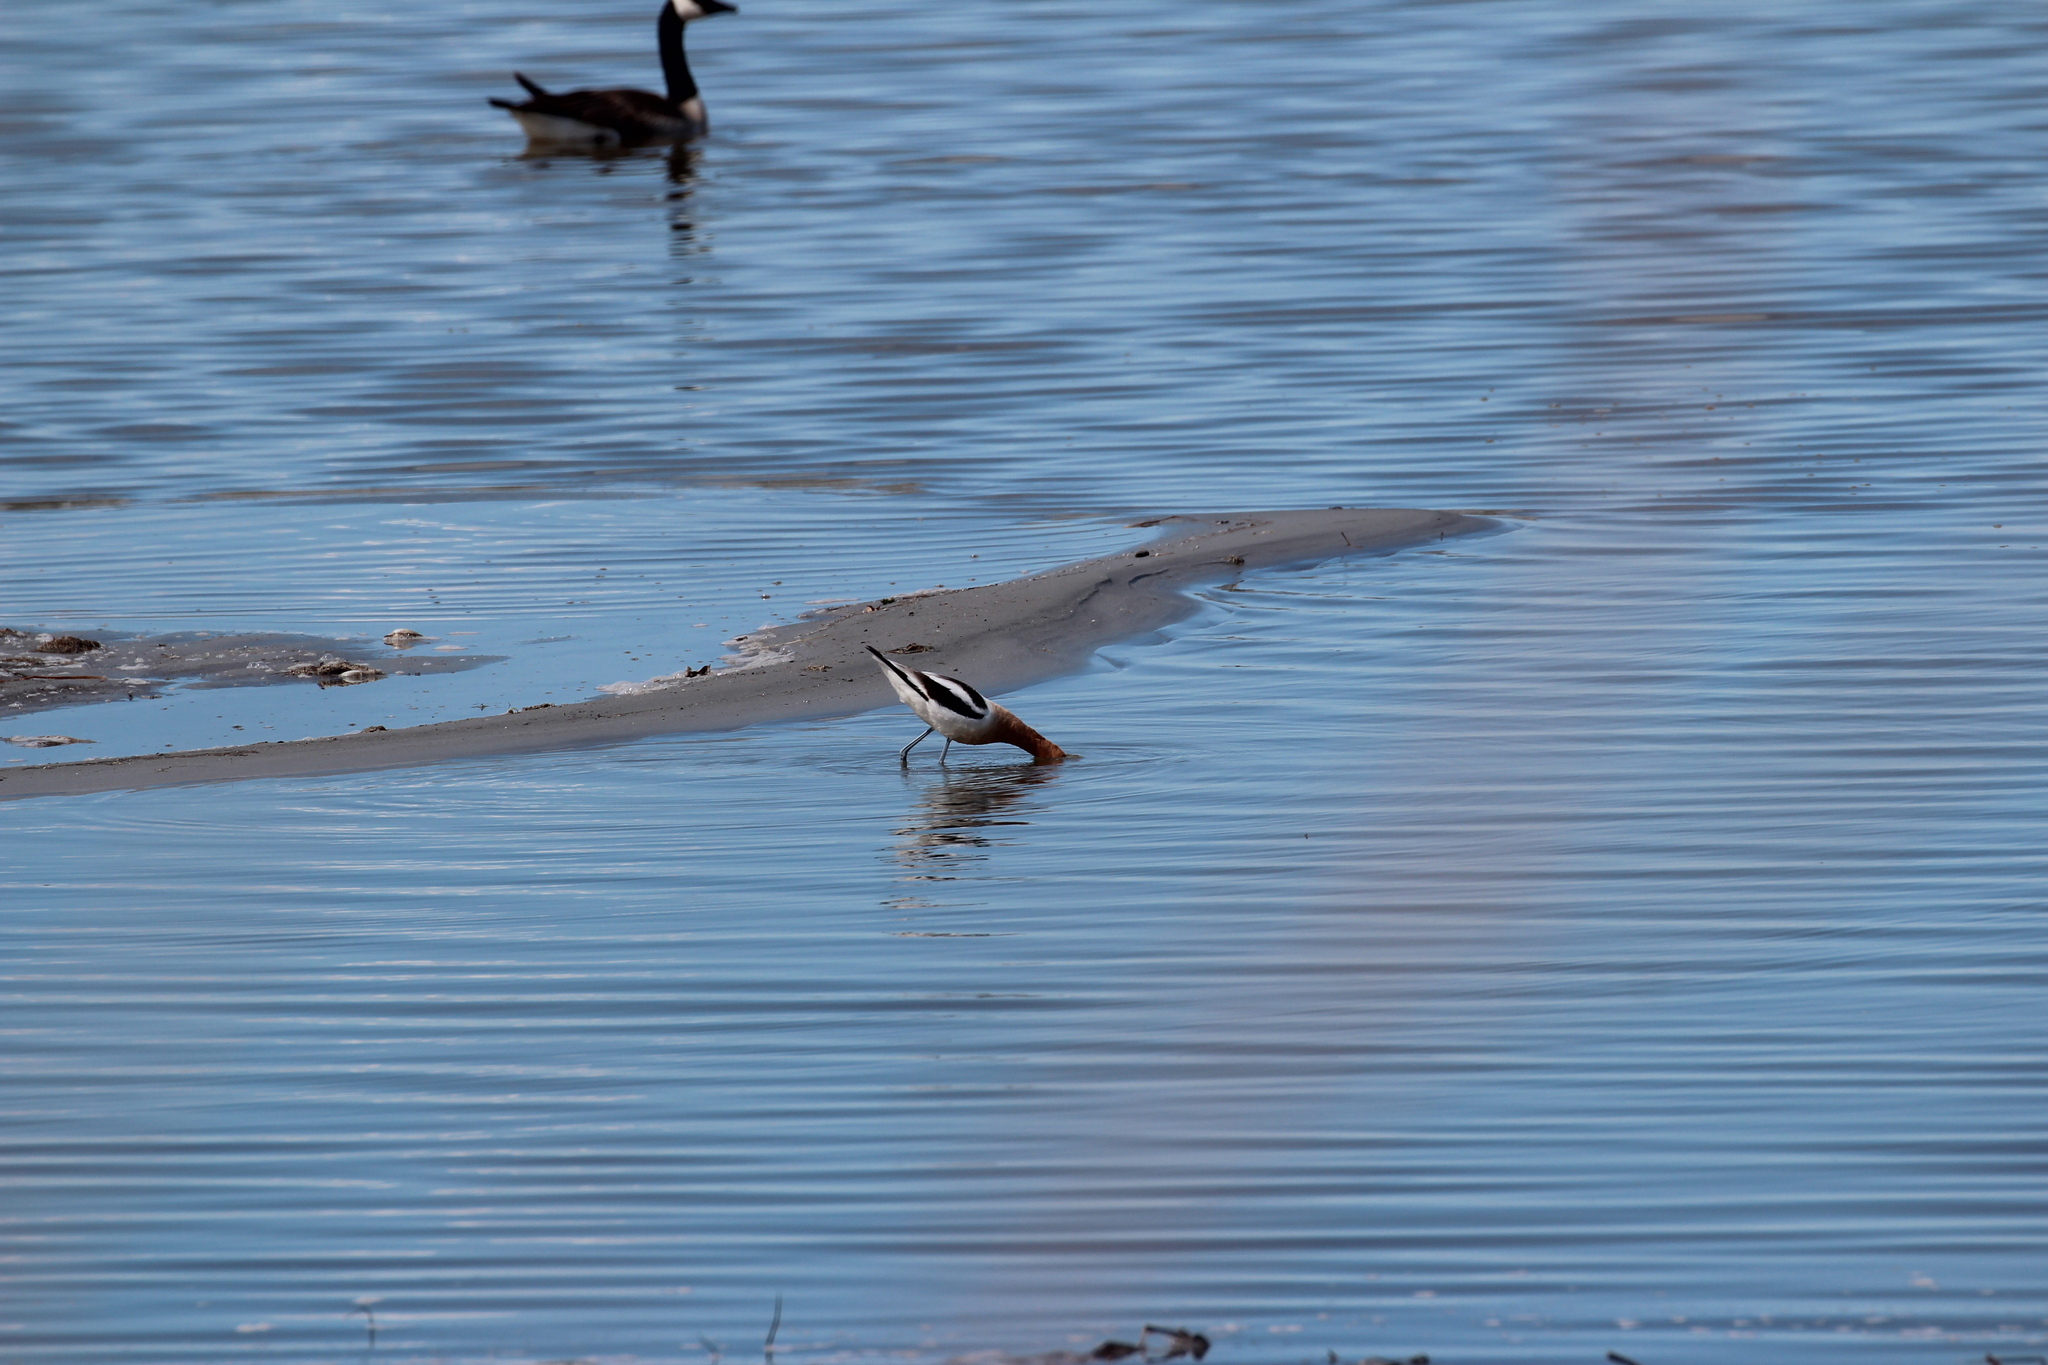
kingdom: Animalia
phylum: Chordata
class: Aves
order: Charadriiformes
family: Recurvirostridae
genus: Recurvirostra
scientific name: Recurvirostra americana
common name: American avocet
